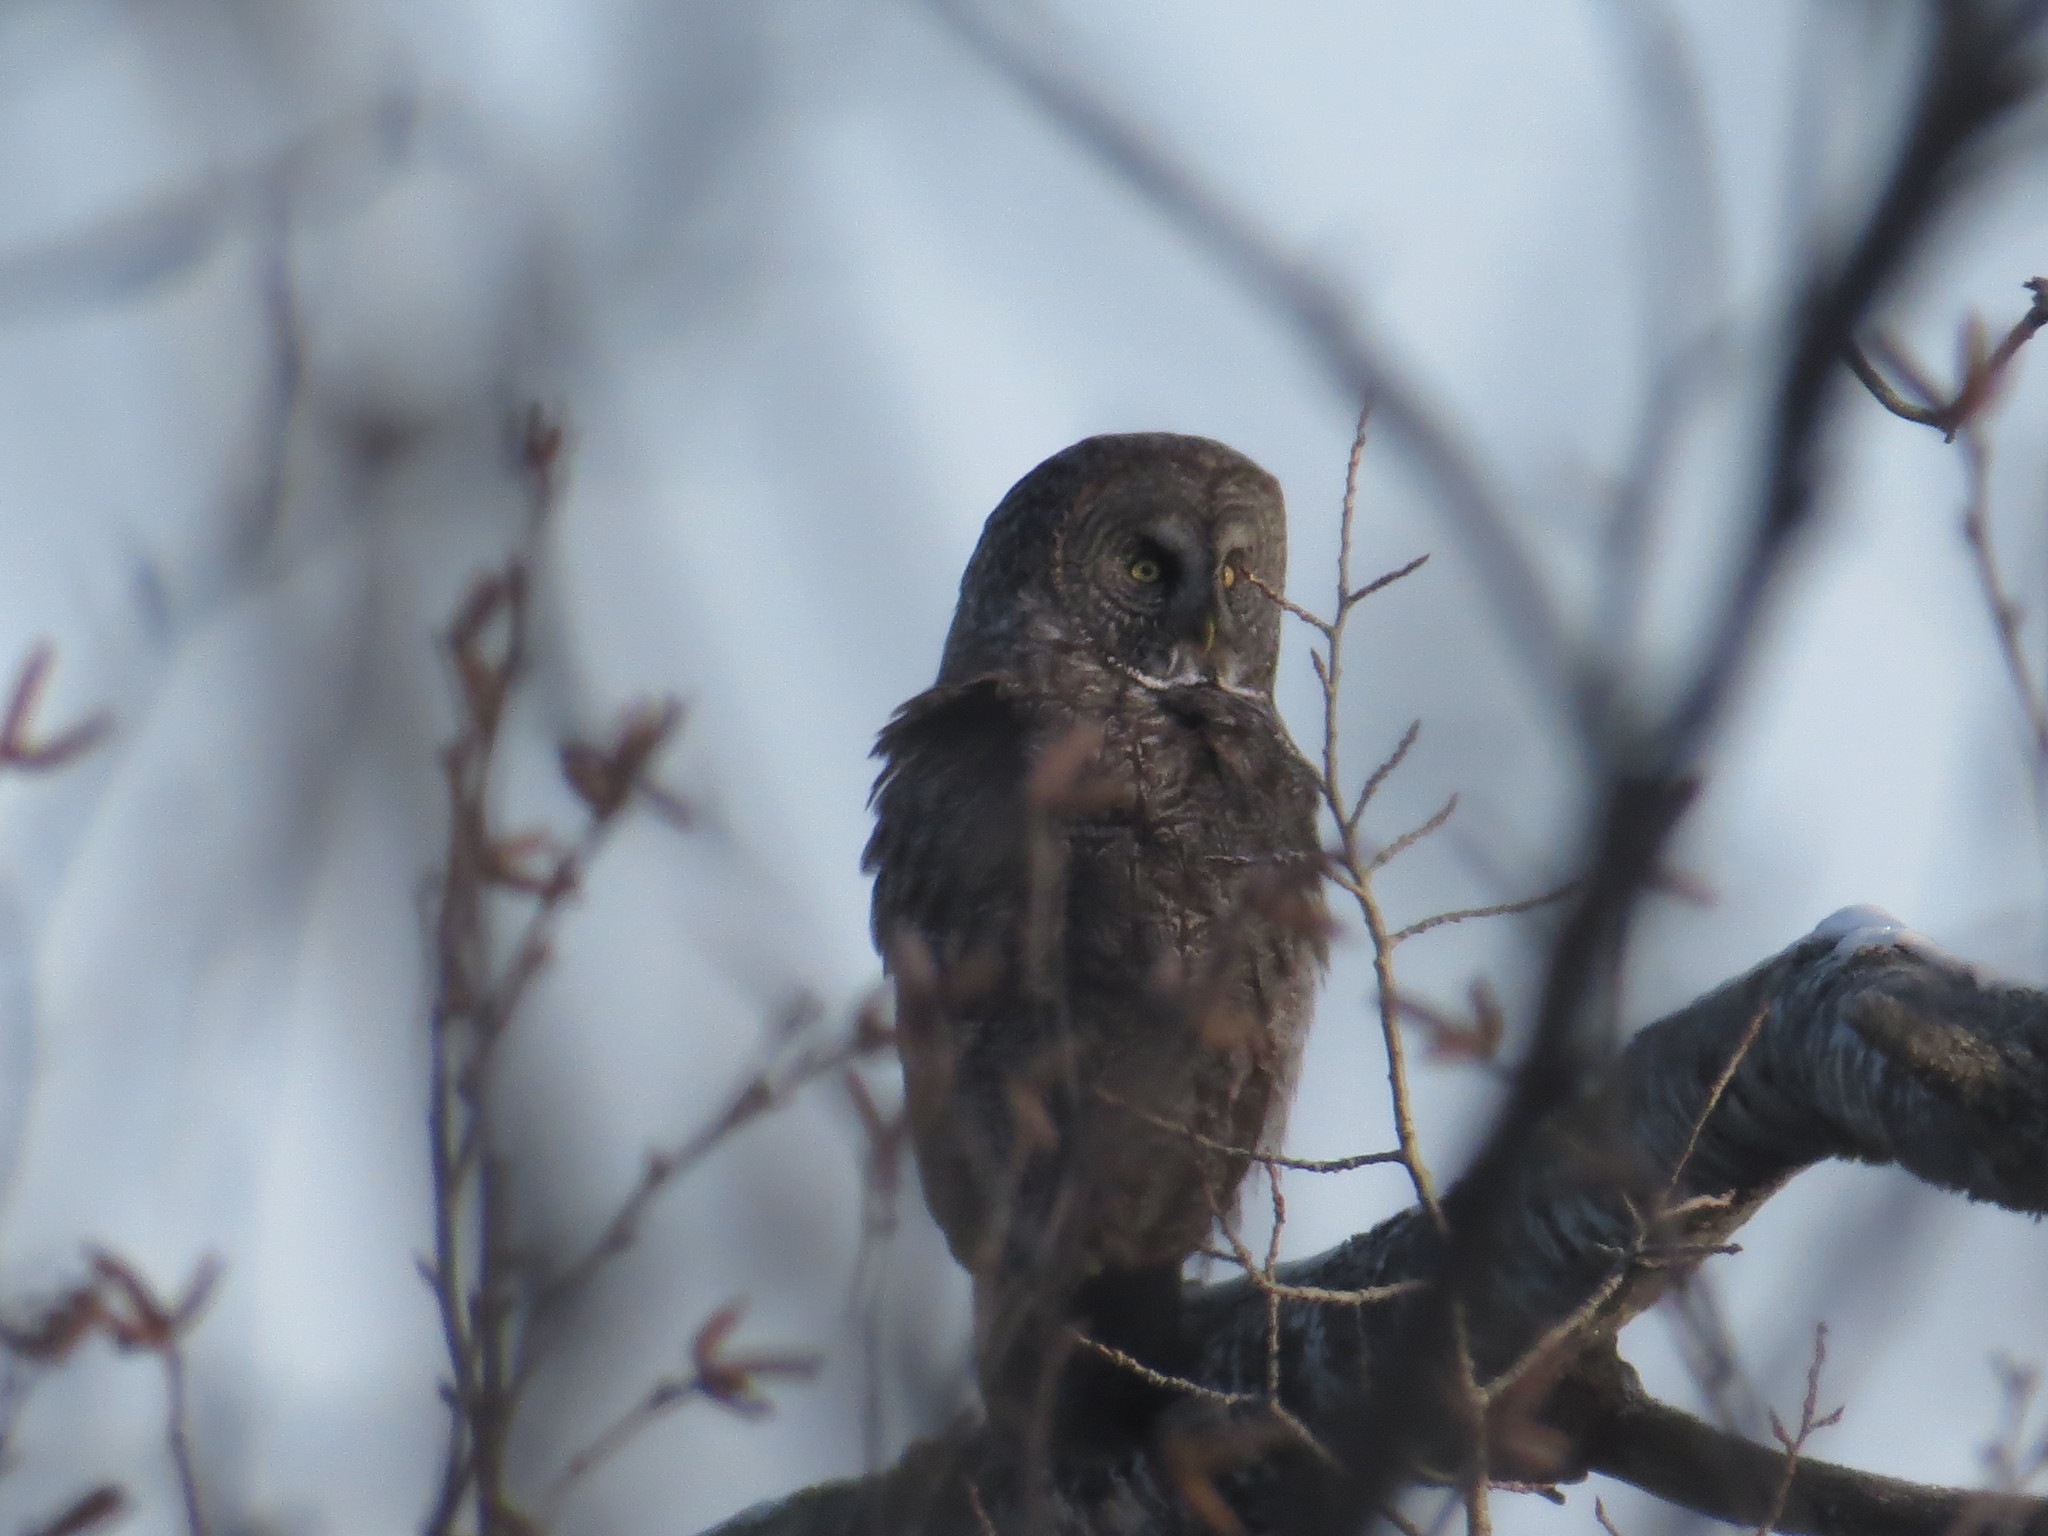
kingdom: Animalia
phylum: Chordata
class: Aves
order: Strigiformes
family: Strigidae
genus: Strix
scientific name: Strix nebulosa
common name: Great grey owl
